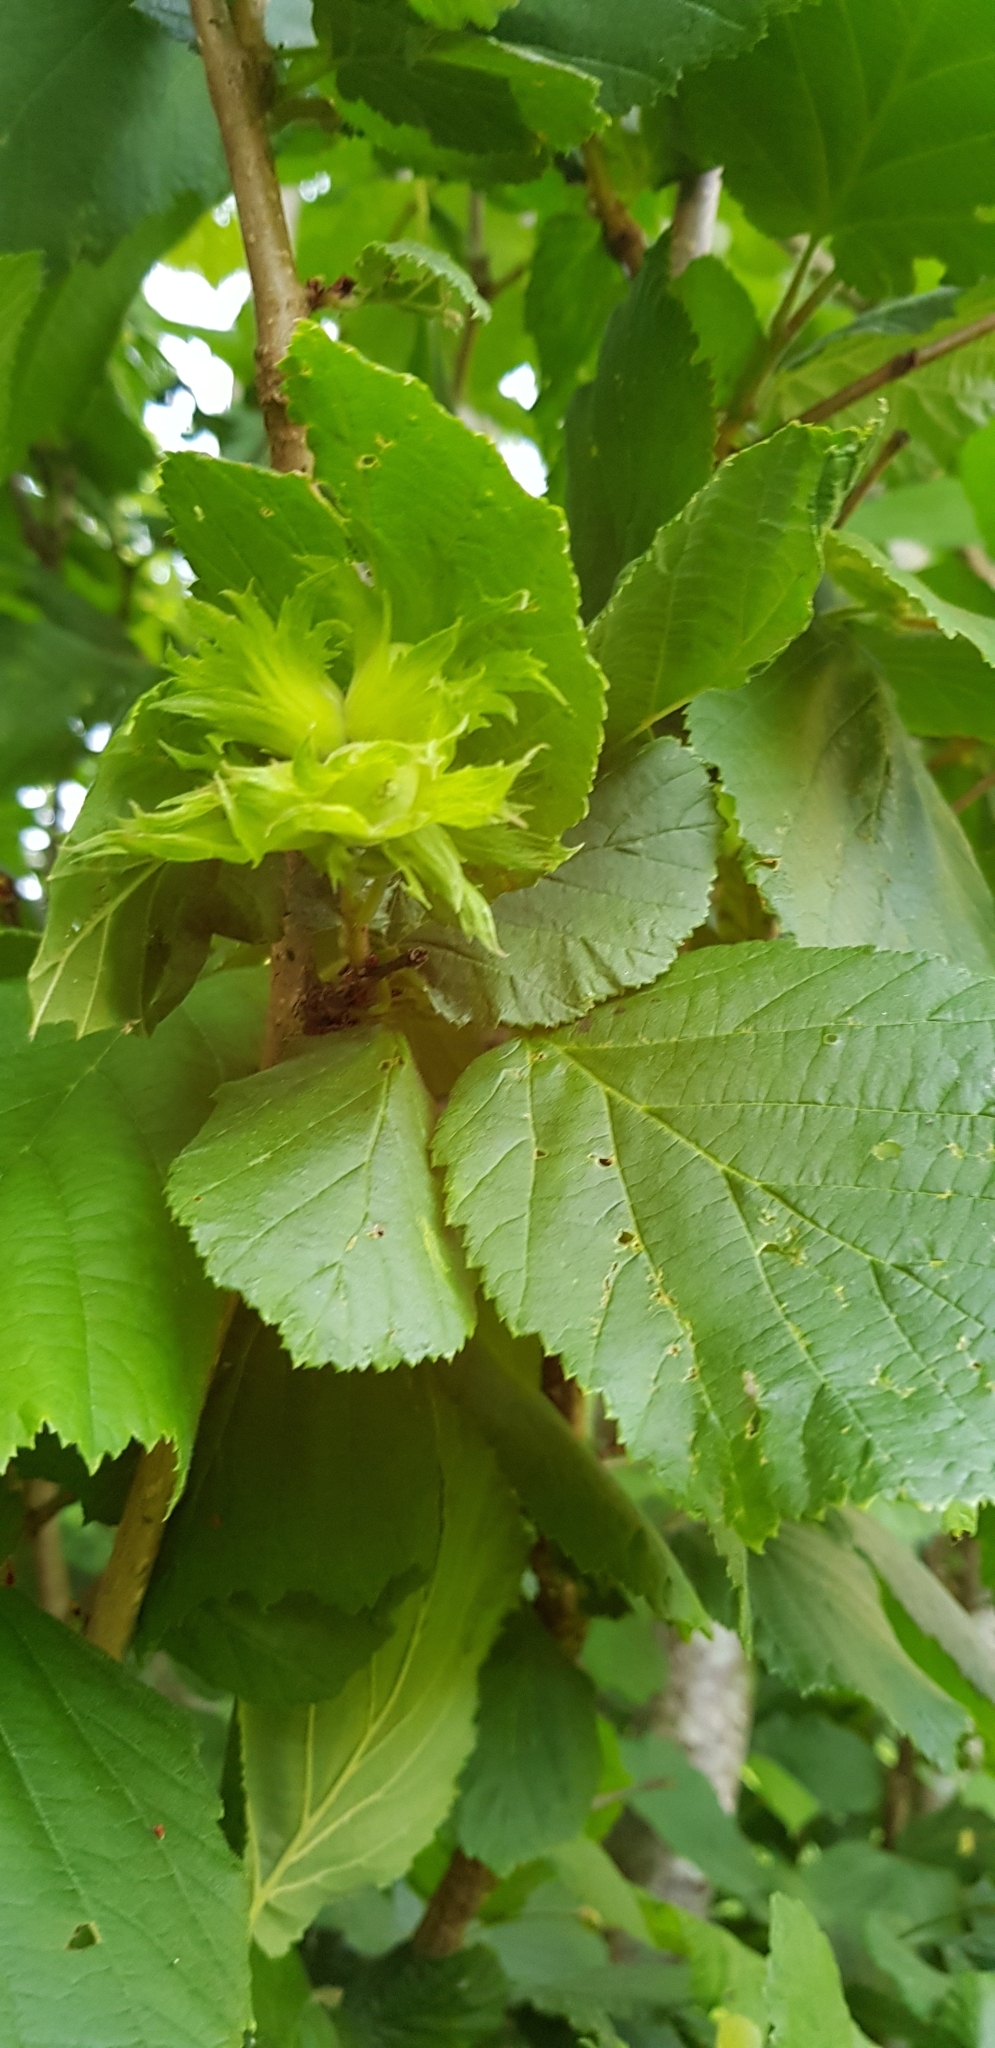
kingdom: Plantae
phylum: Tracheophyta
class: Magnoliopsida
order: Fagales
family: Betulaceae
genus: Corylus
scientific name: Corylus avellana
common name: European hazel
